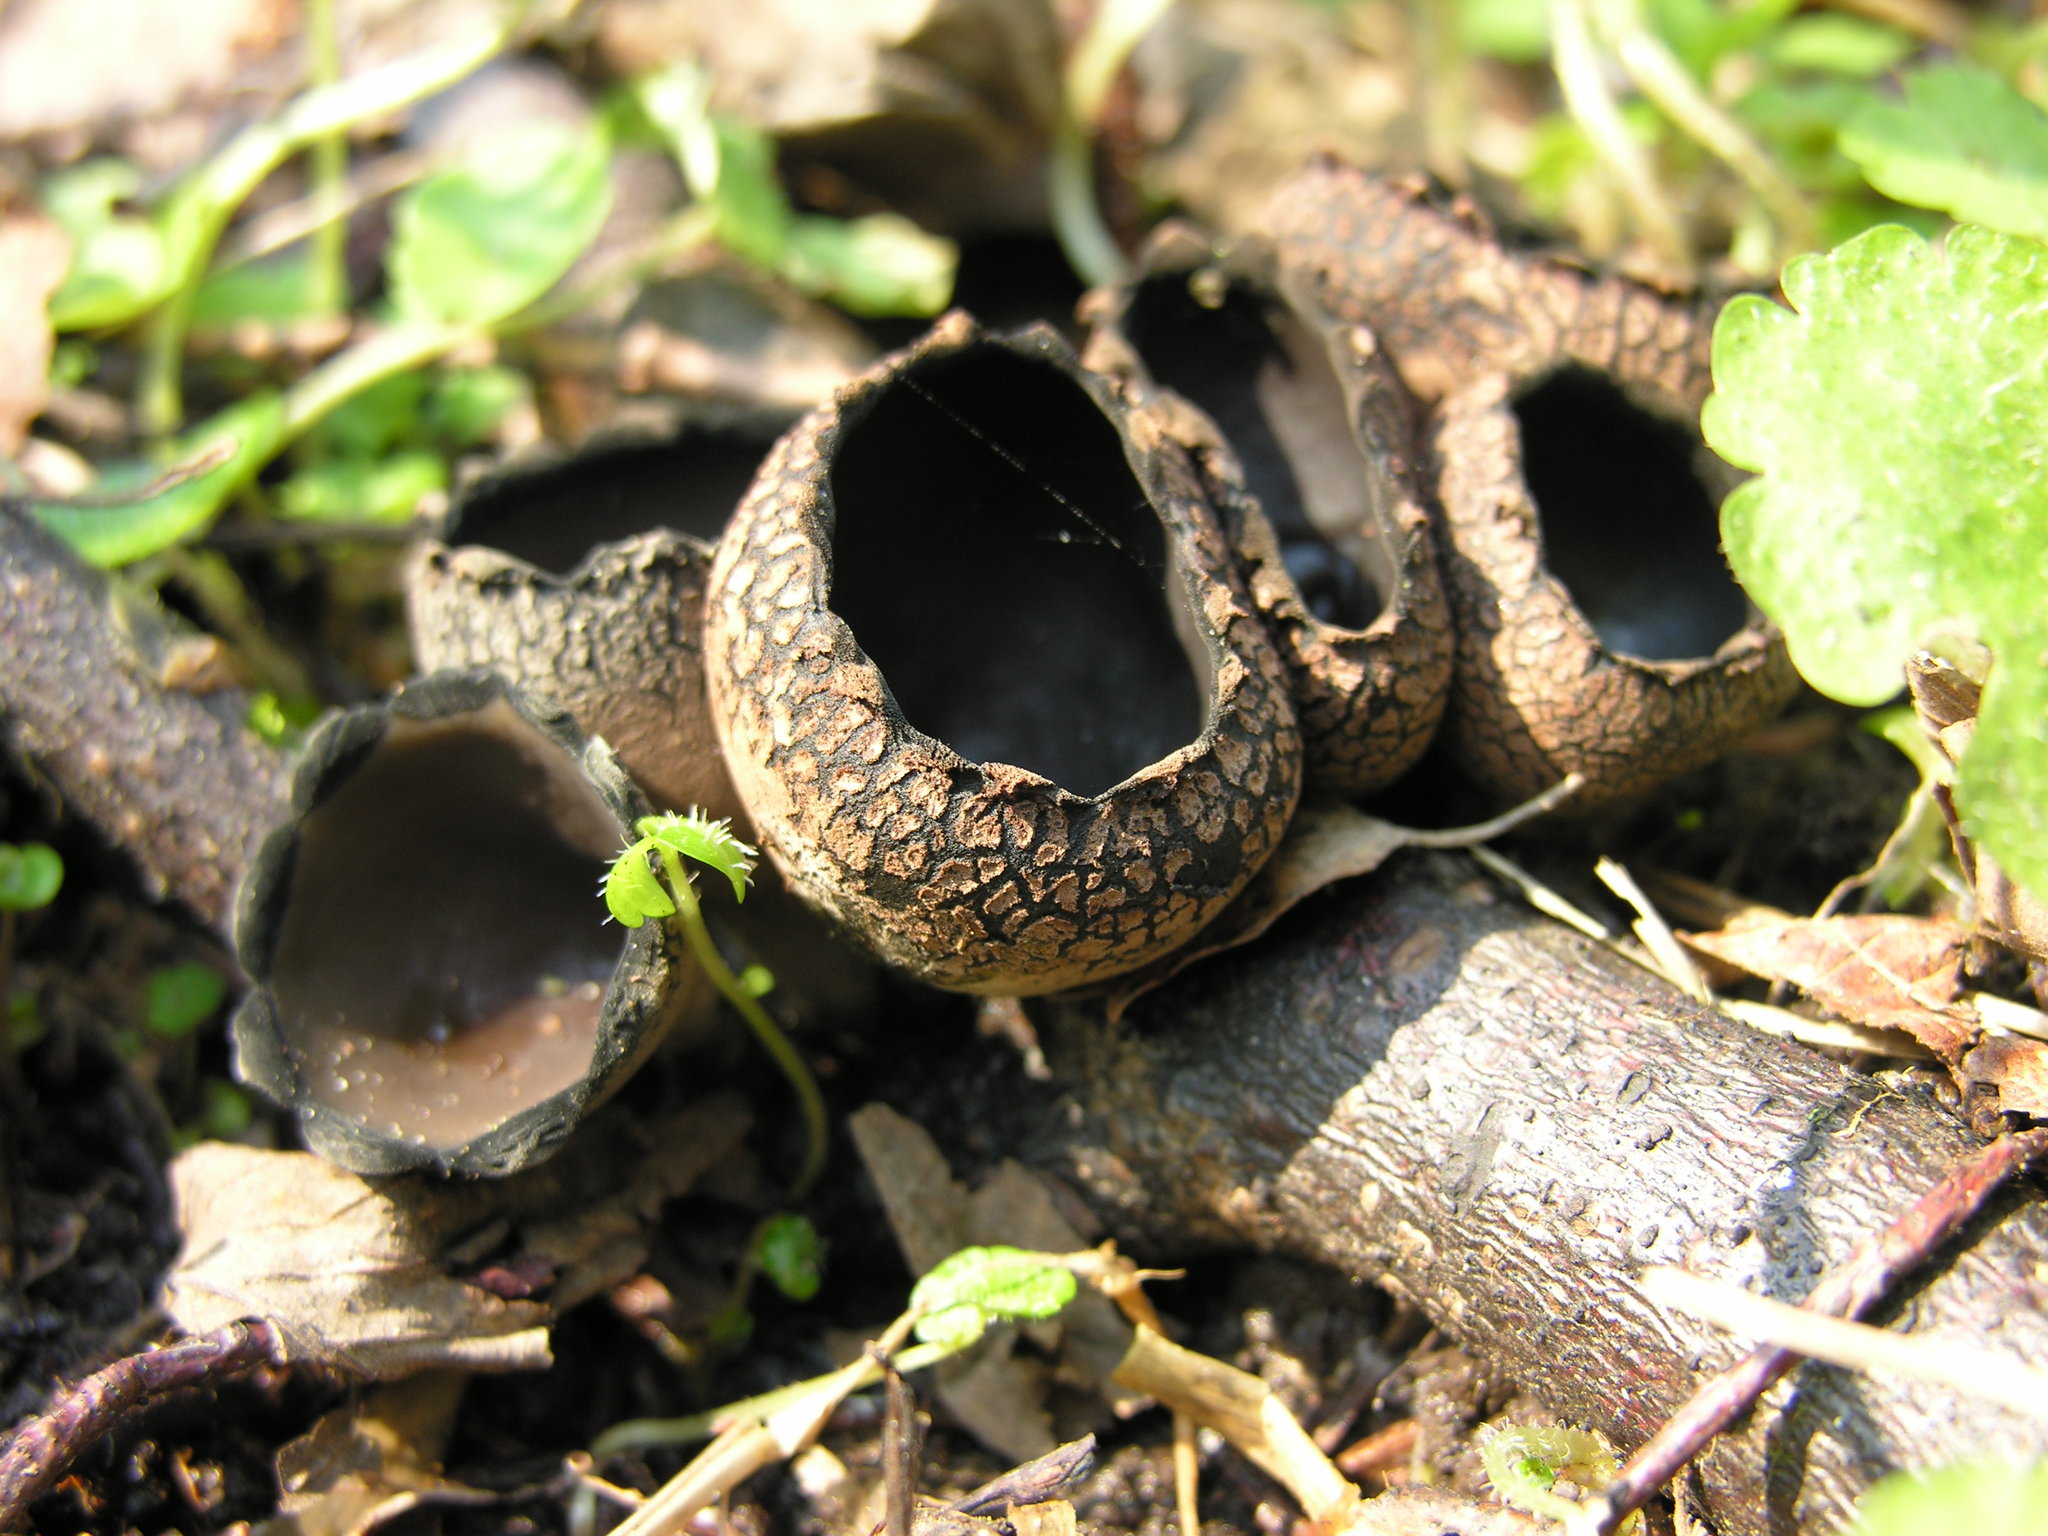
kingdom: Fungi
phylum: Ascomycota
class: Pezizomycetes
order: Pezizales
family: Sarcosomataceae
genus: Urnula
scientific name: Urnula craterium
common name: Devil's urn
